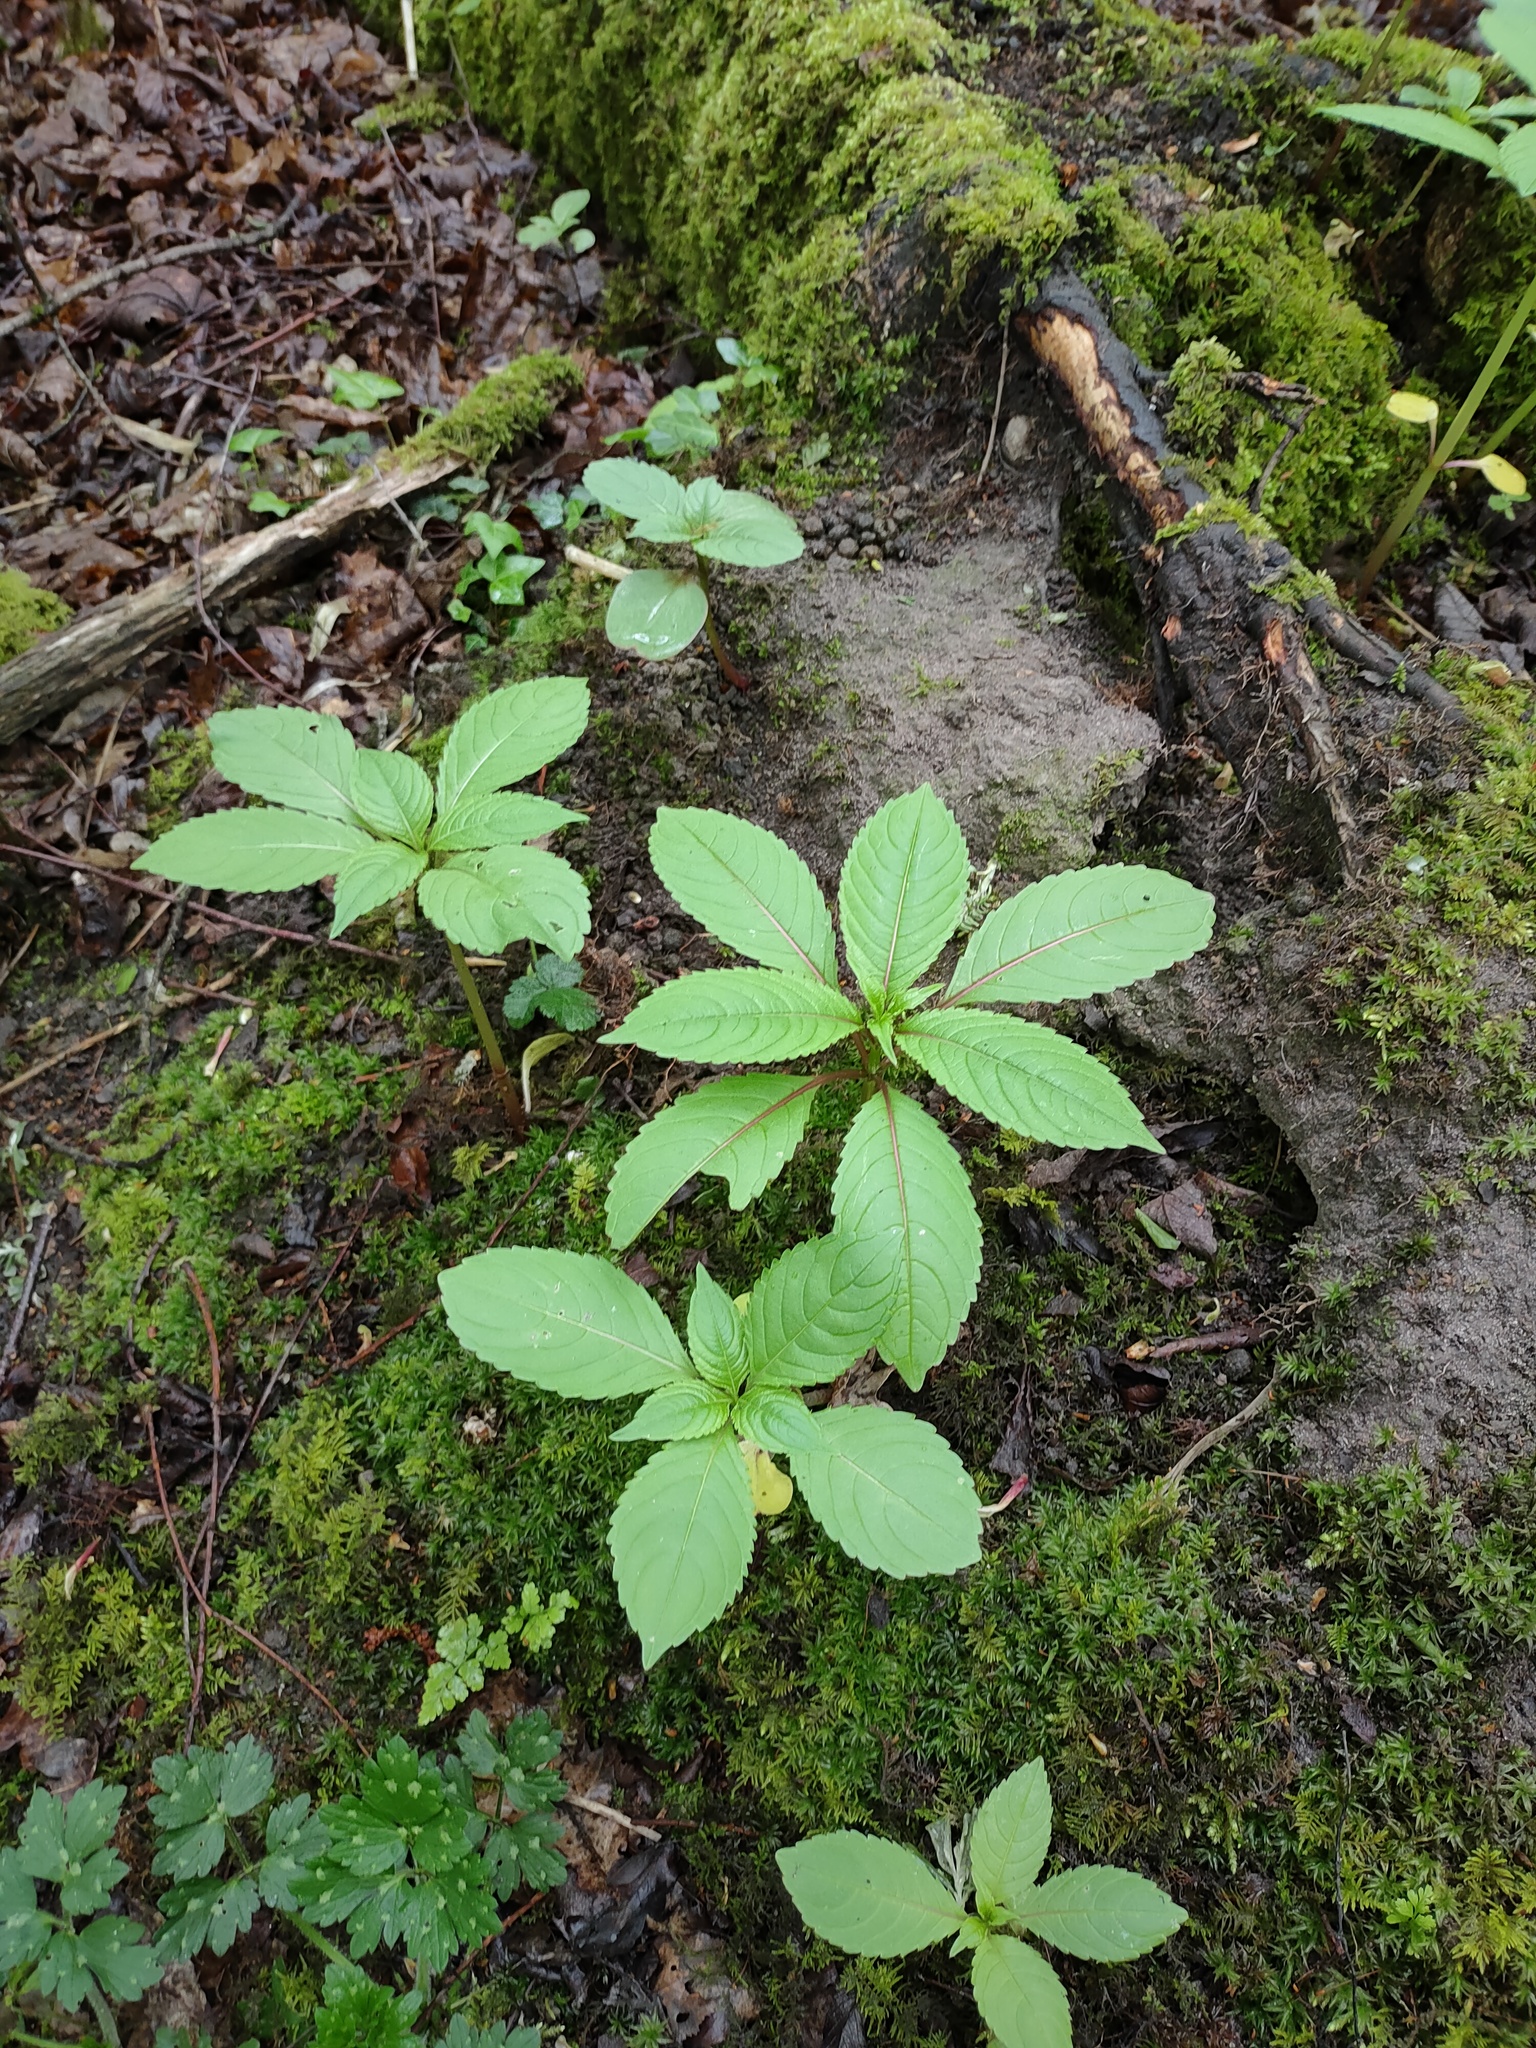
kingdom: Plantae
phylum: Tracheophyta
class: Magnoliopsida
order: Ericales
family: Balsaminaceae
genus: Impatiens
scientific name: Impatiens glandulifera
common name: Himalayan balsam
